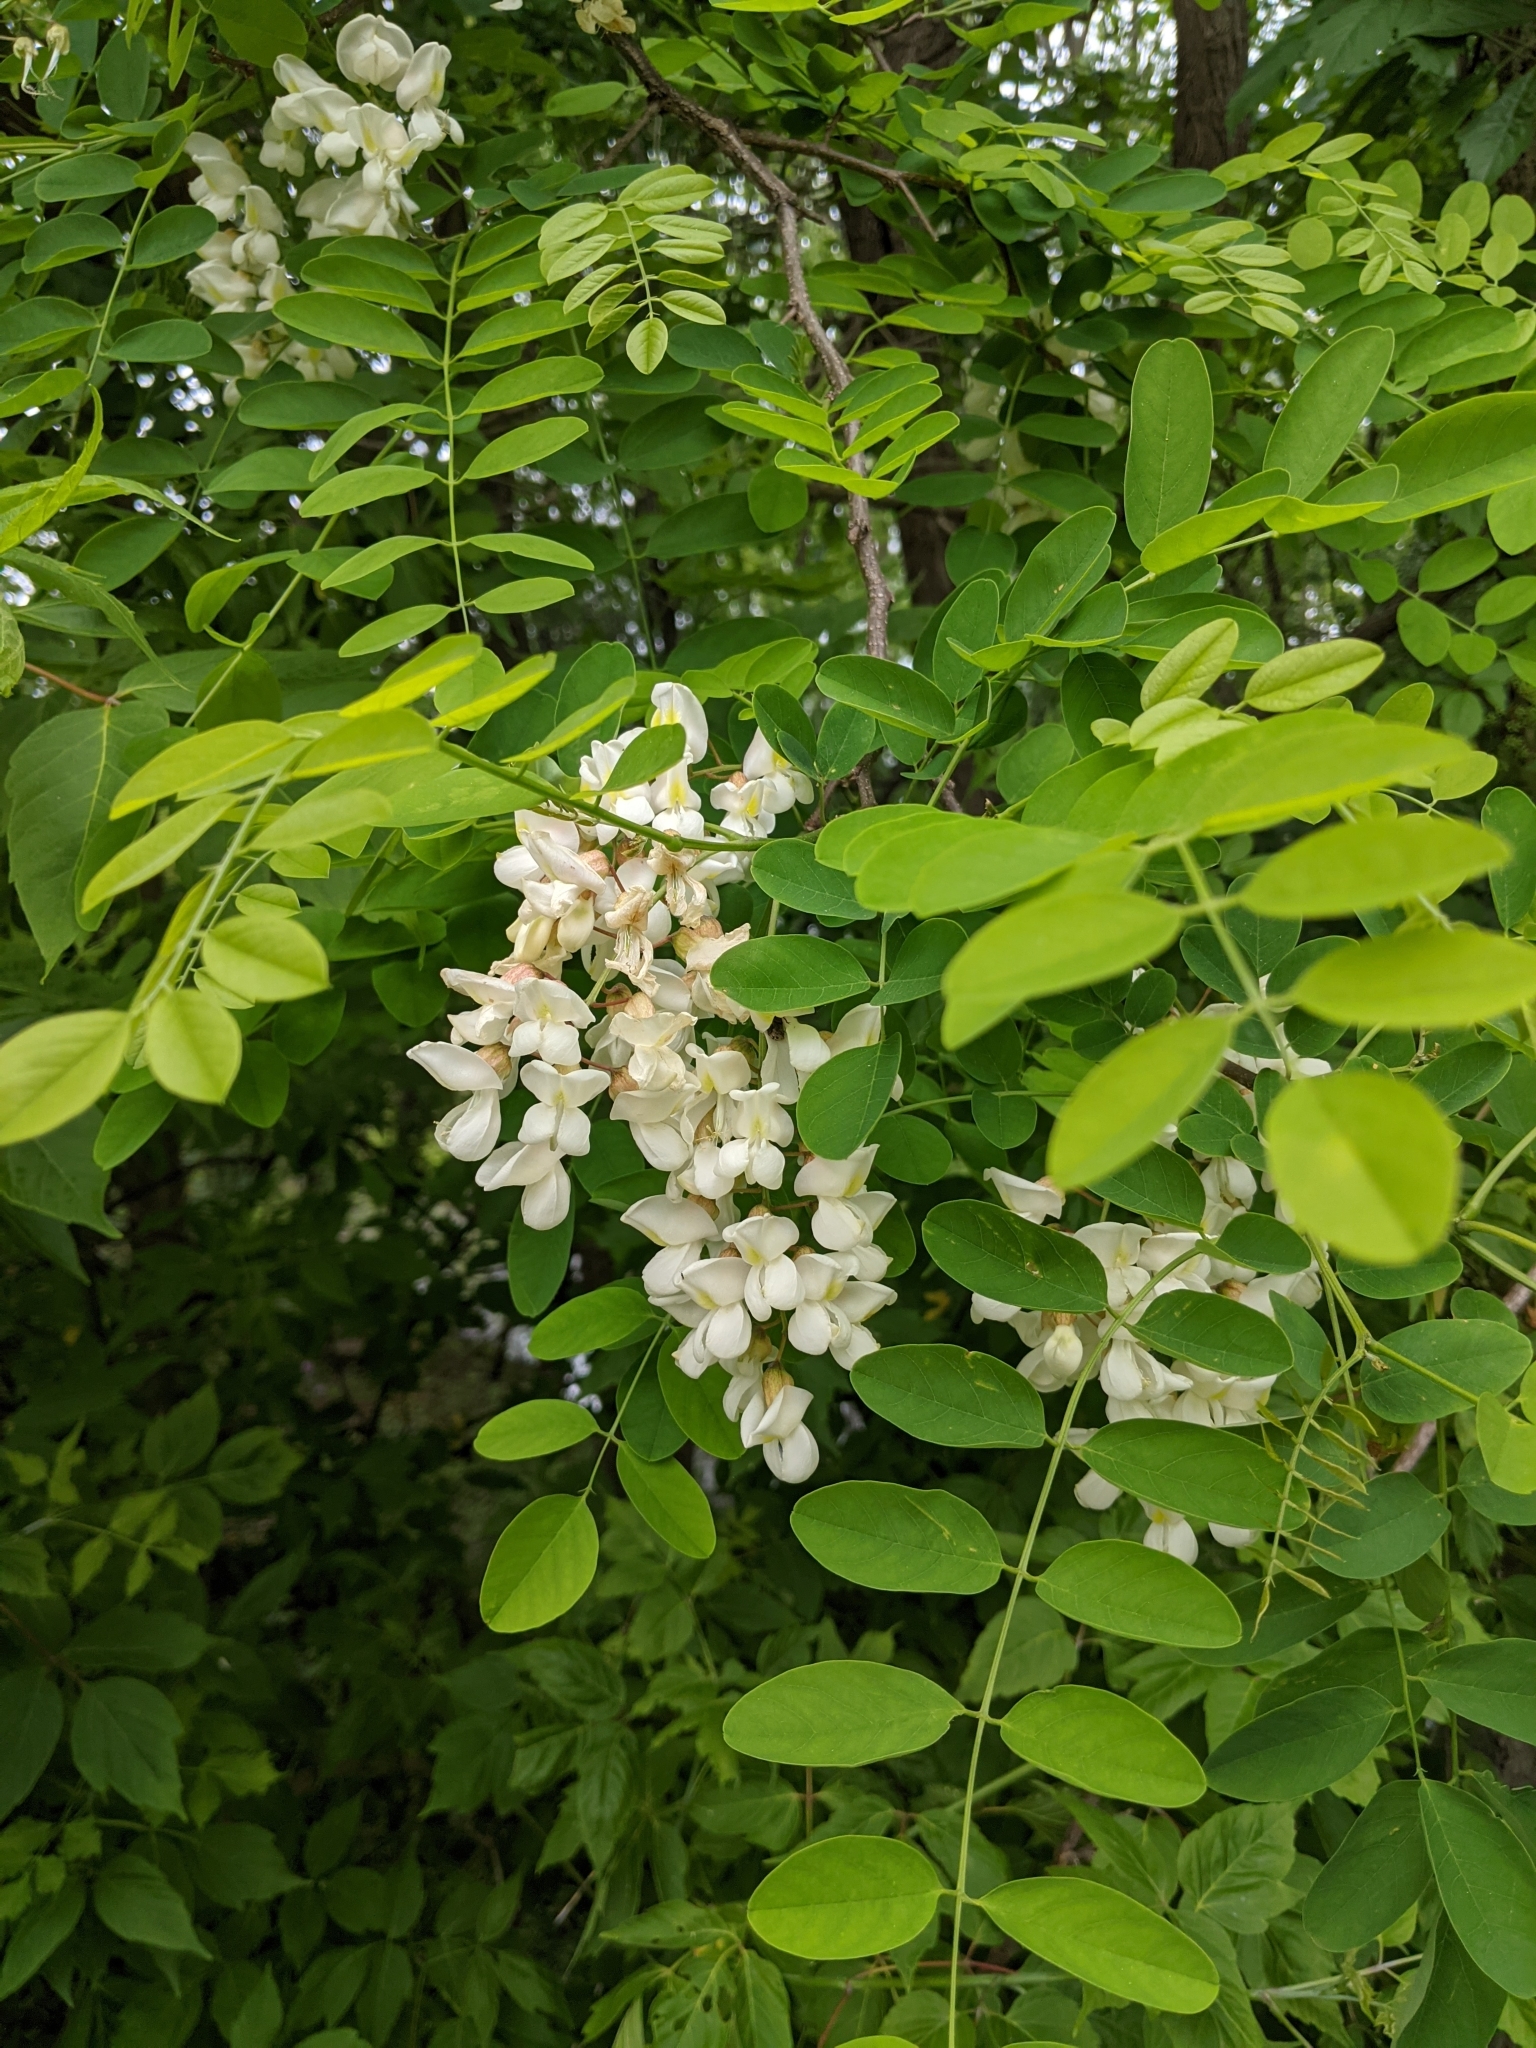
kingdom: Plantae
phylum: Tracheophyta
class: Magnoliopsida
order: Fabales
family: Fabaceae
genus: Robinia
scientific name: Robinia pseudoacacia
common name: Black locust
